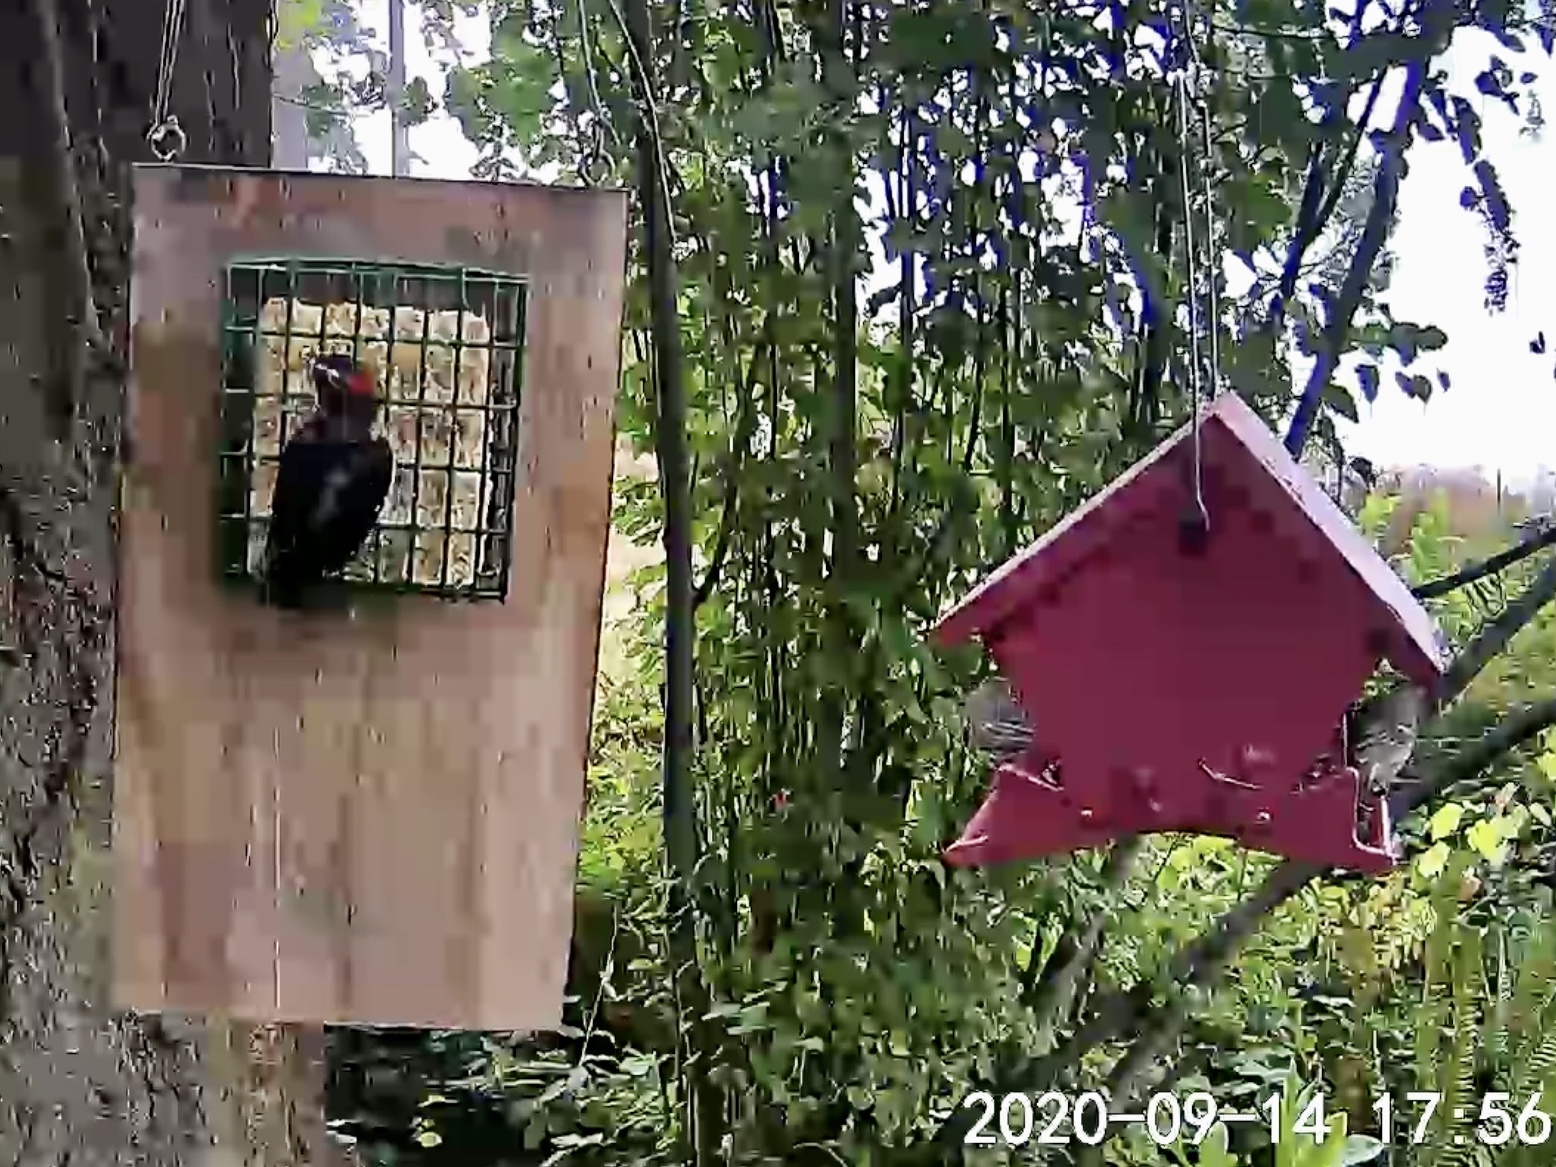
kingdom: Animalia
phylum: Chordata
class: Aves
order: Piciformes
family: Picidae
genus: Dryobates
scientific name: Dryobates pubescens
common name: Downy woodpecker
